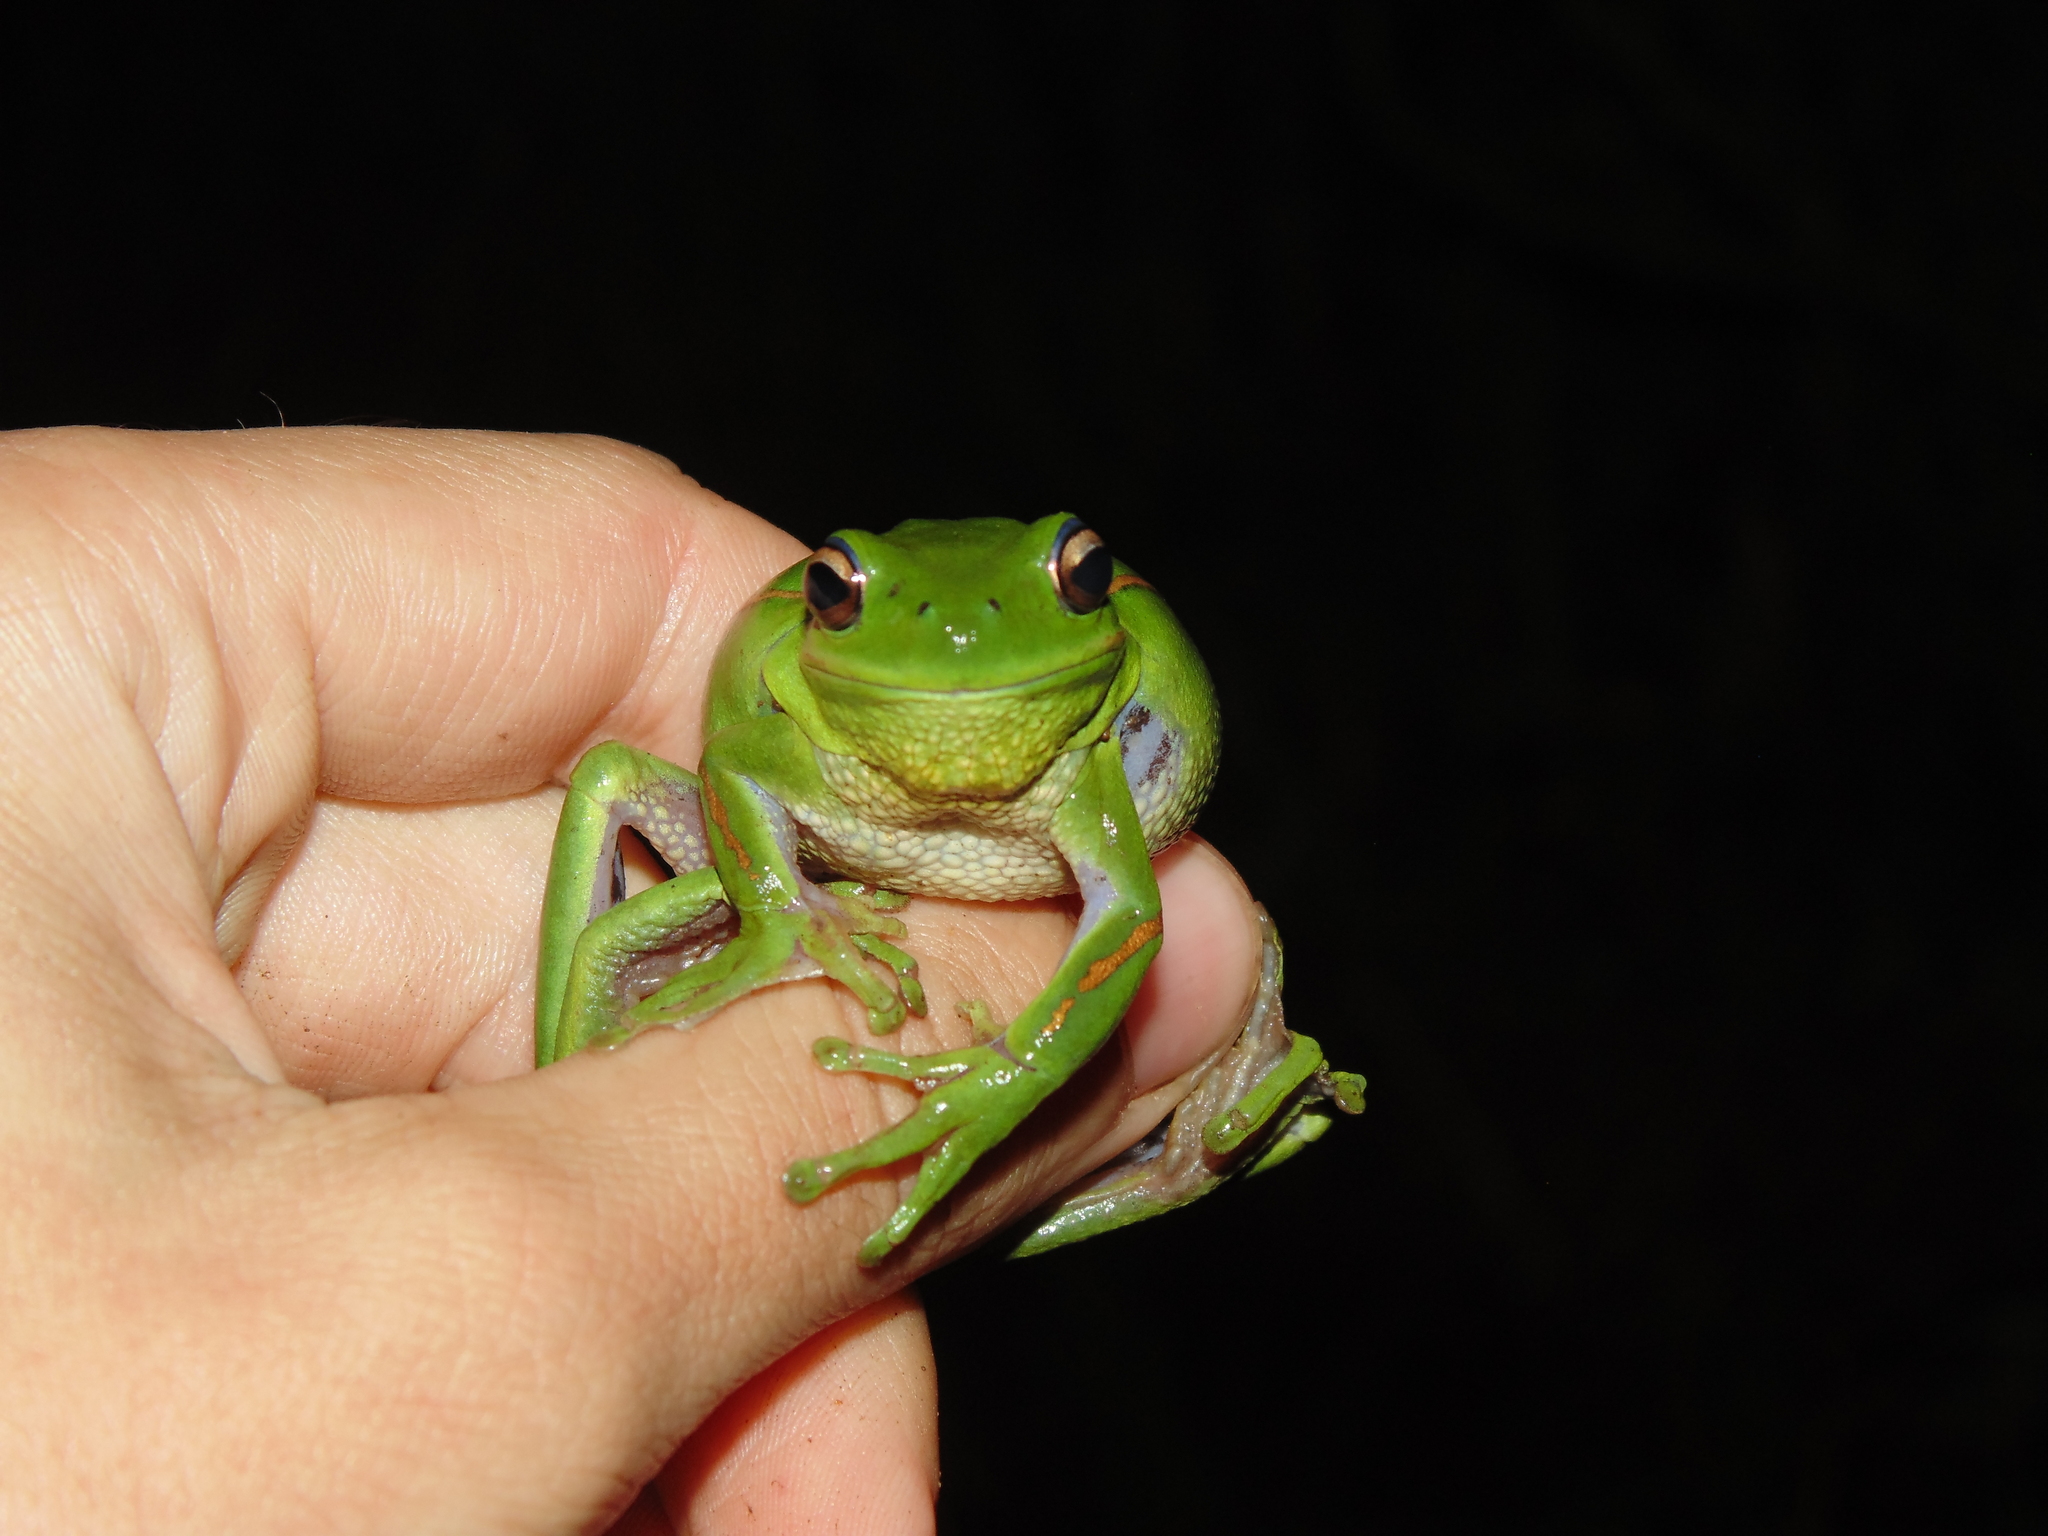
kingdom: Animalia
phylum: Chordata
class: Amphibia
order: Anura
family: Hylidae
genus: Boana
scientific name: Boana prasina
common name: Burmeister's treefrog
